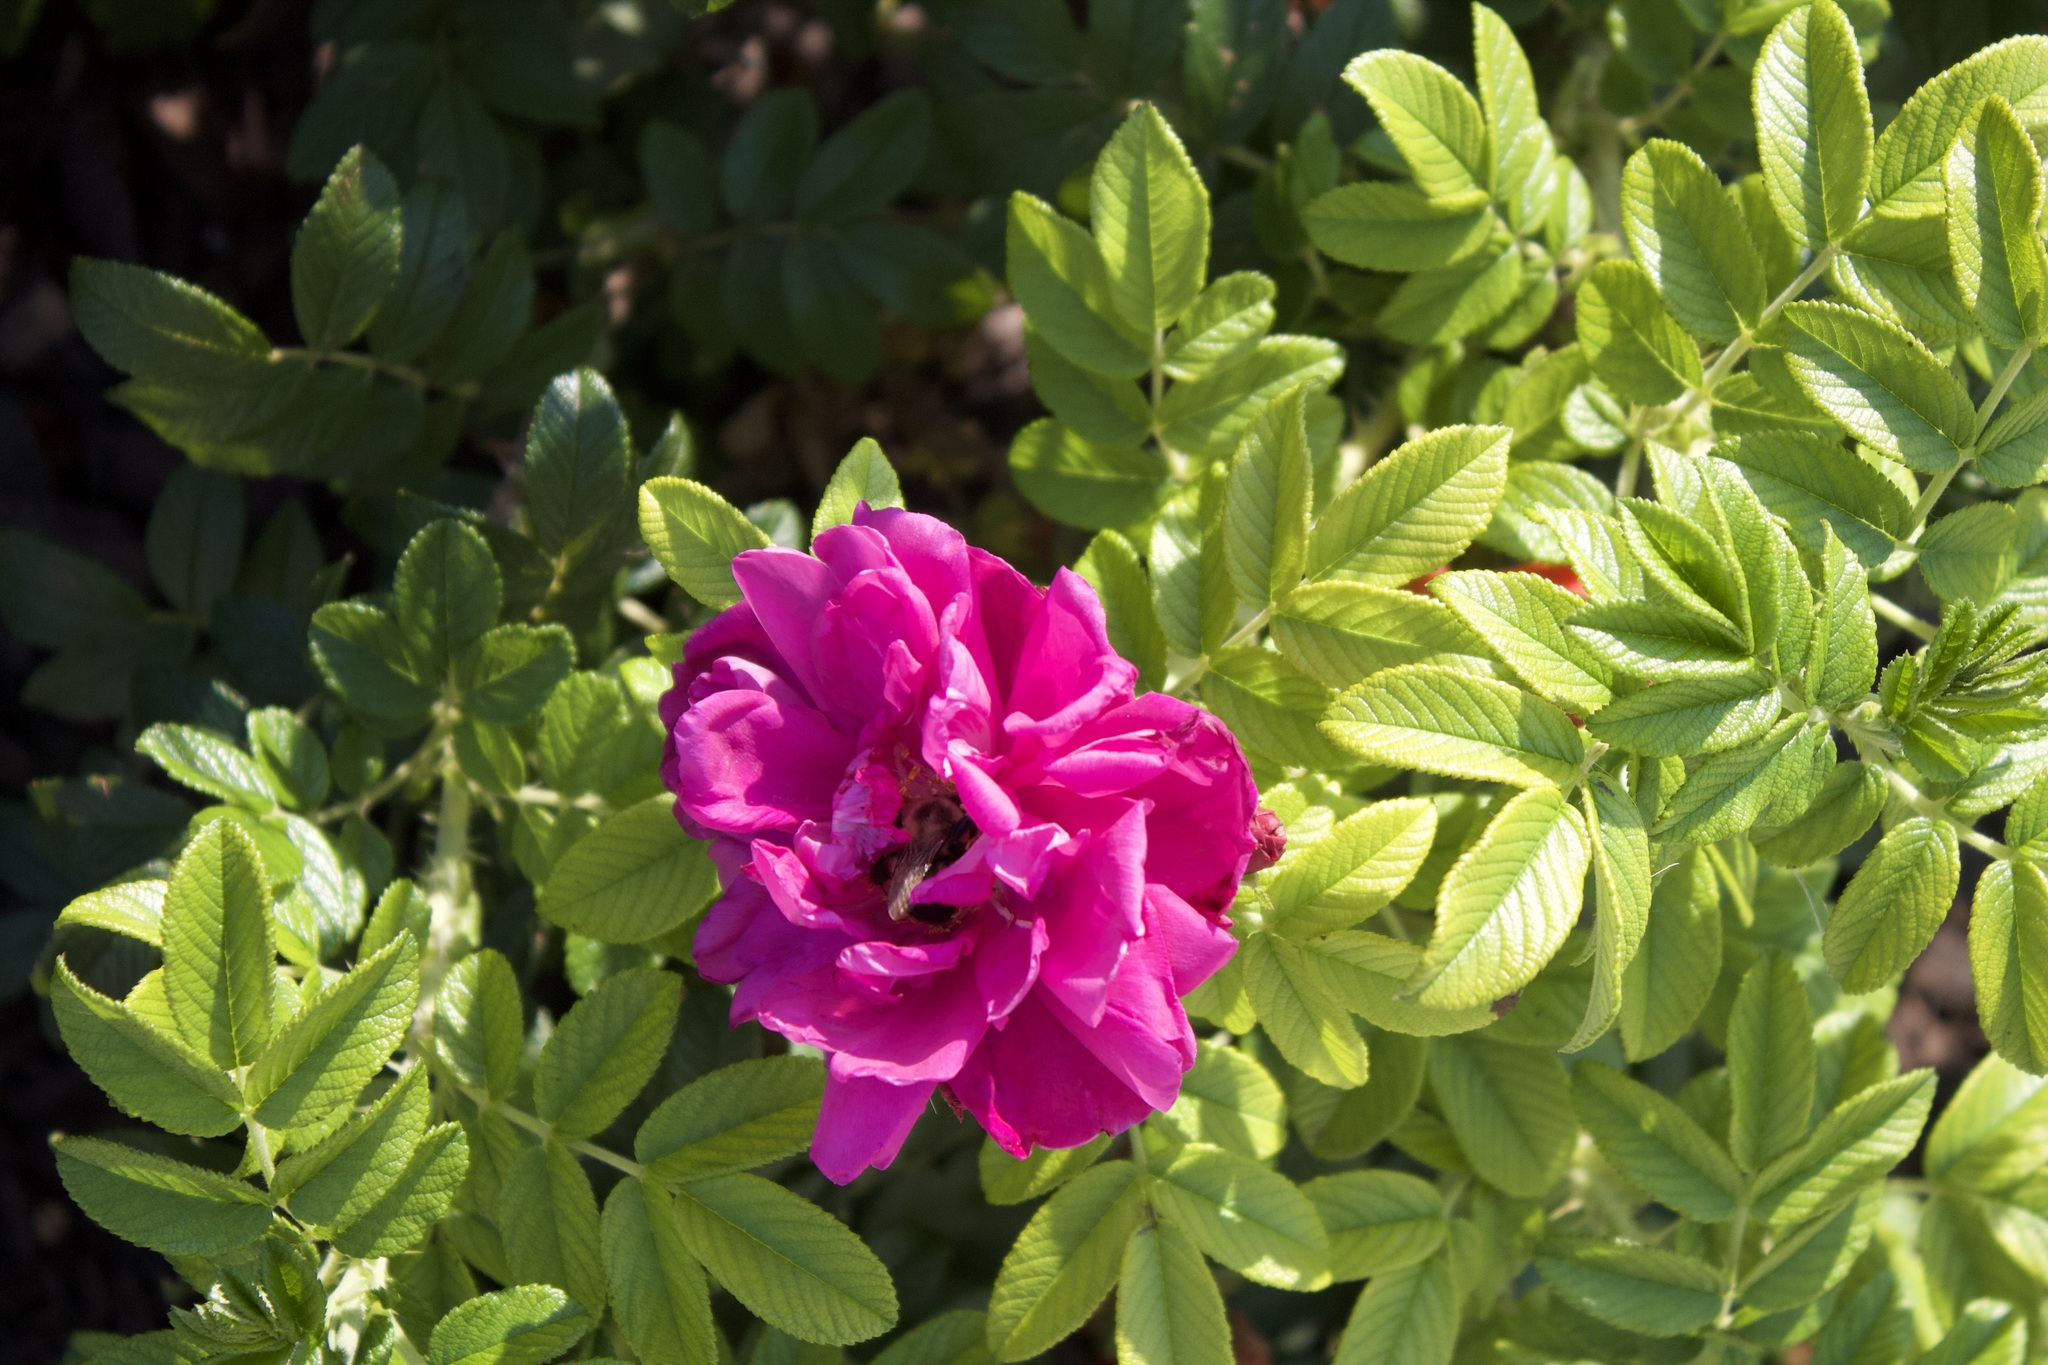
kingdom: Animalia
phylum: Arthropoda
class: Insecta
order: Hymenoptera
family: Apidae
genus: Bombus
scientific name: Bombus impatiens
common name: Common eastern bumble bee
